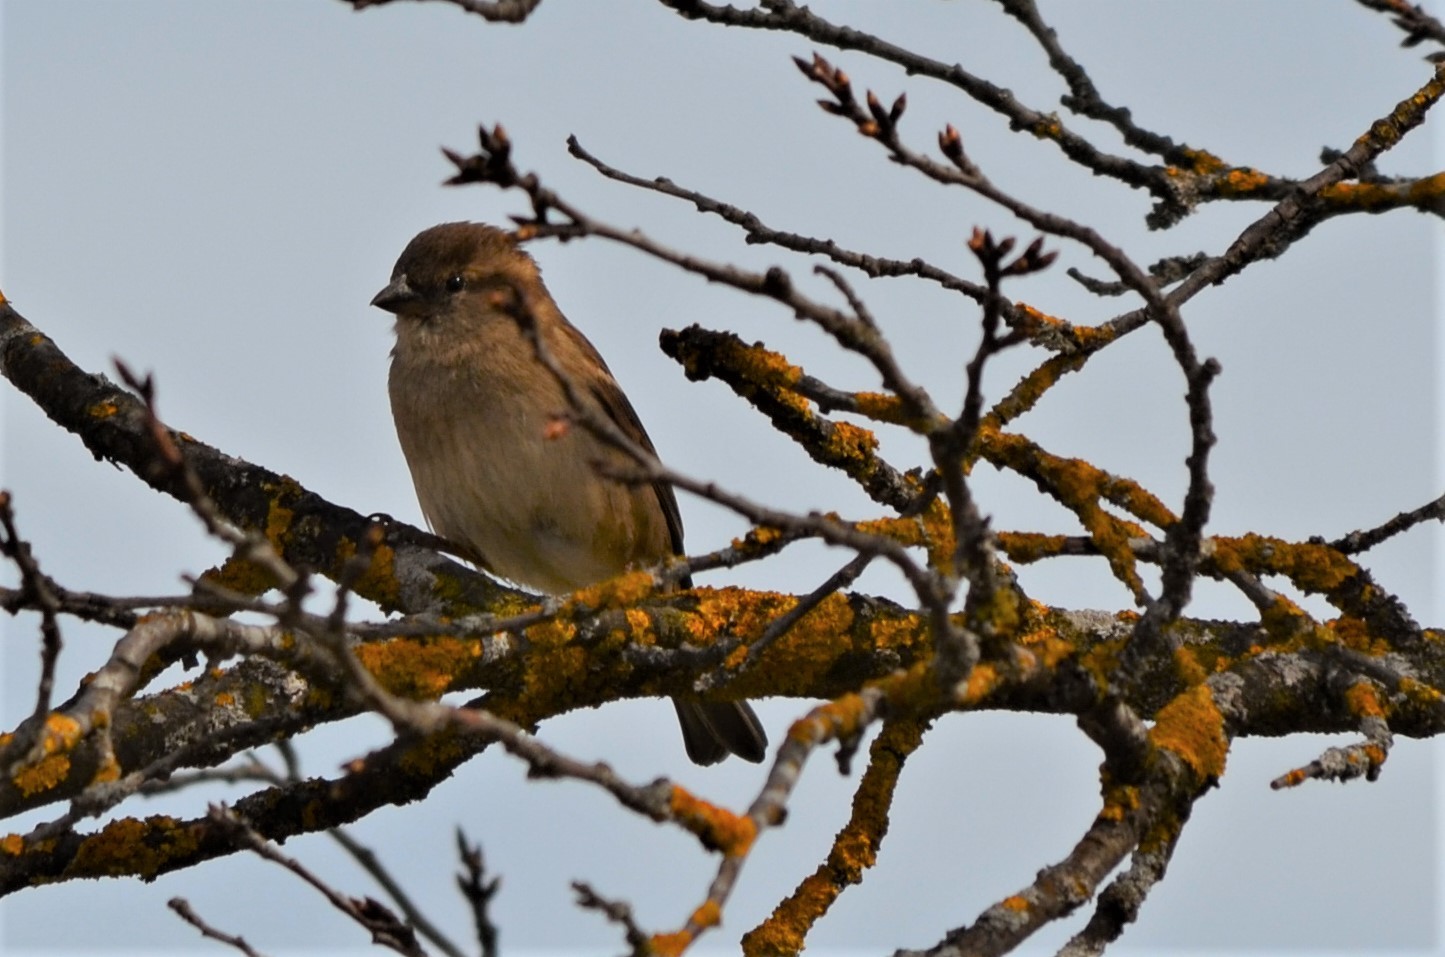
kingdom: Animalia
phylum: Chordata
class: Aves
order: Passeriformes
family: Passeridae
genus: Passer
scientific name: Passer domesticus
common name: House sparrow
